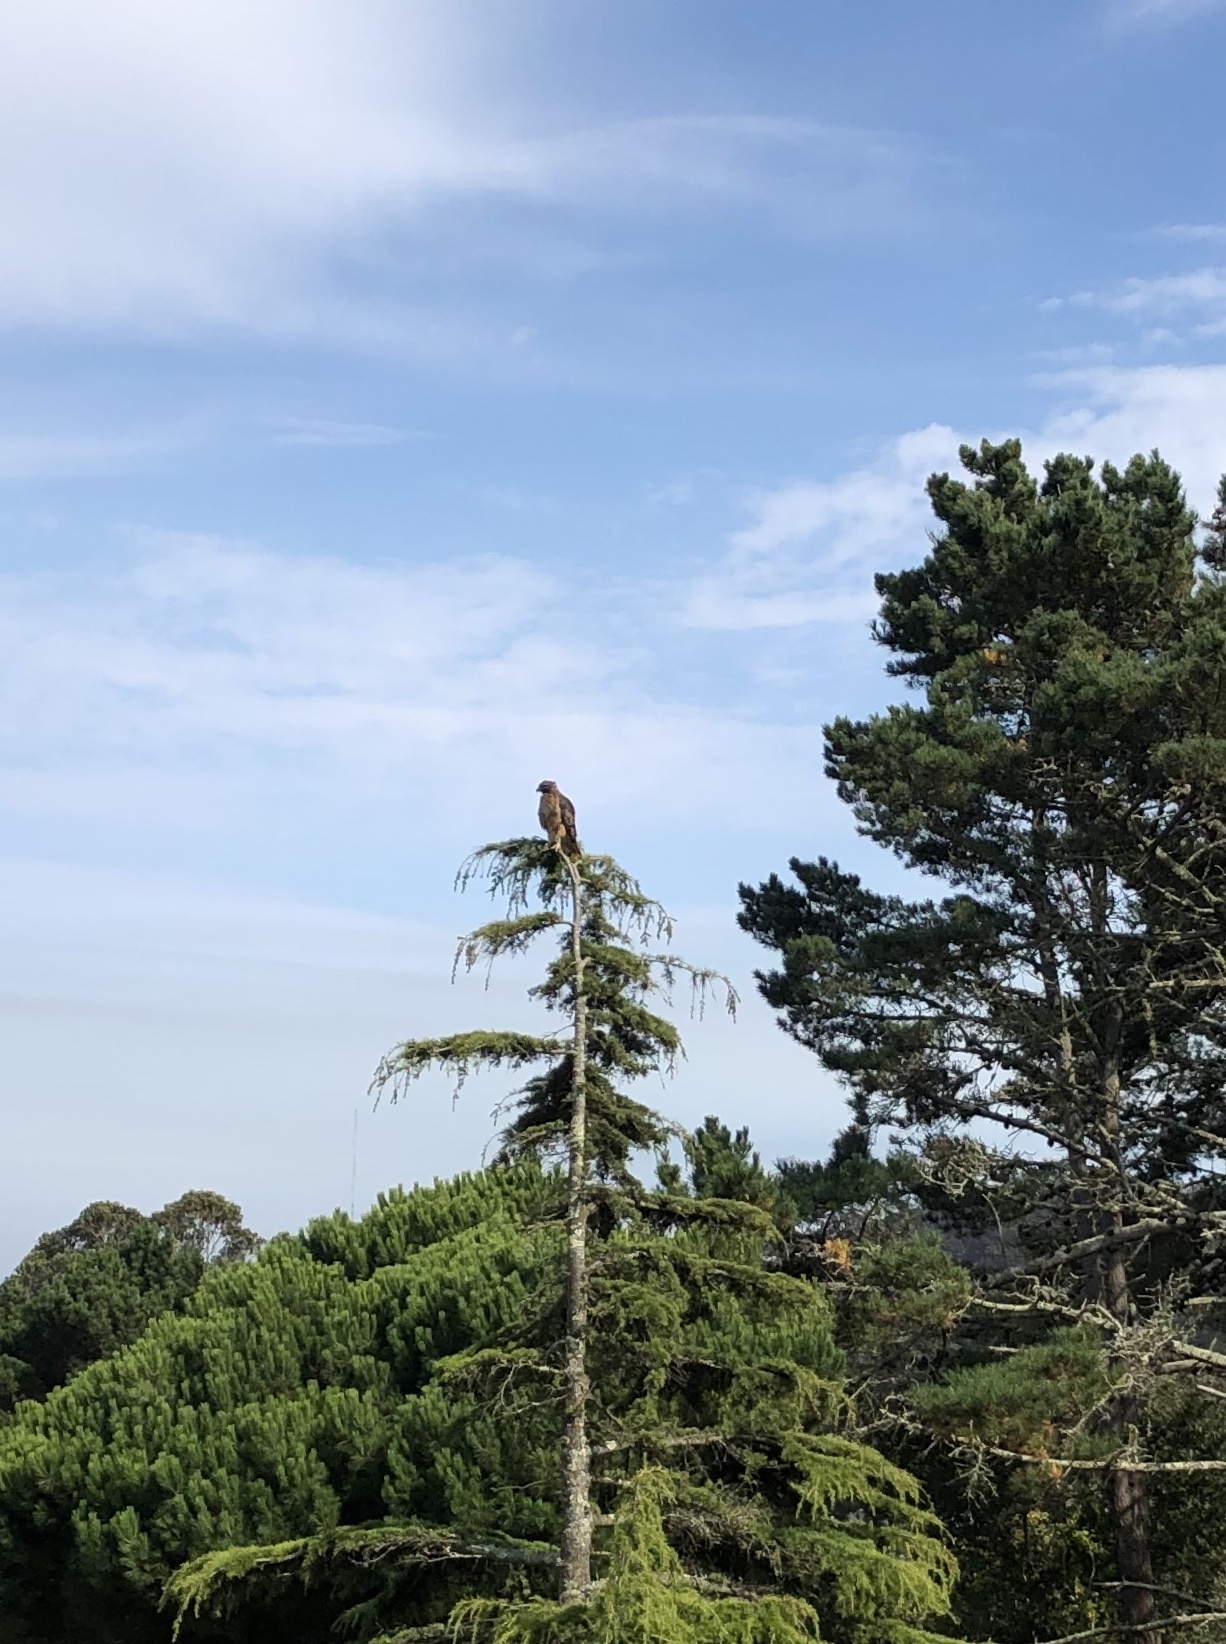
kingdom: Animalia
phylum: Chordata
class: Aves
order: Accipitriformes
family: Accipitridae
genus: Buteo
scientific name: Buteo jamaicensis
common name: Red-tailed hawk
